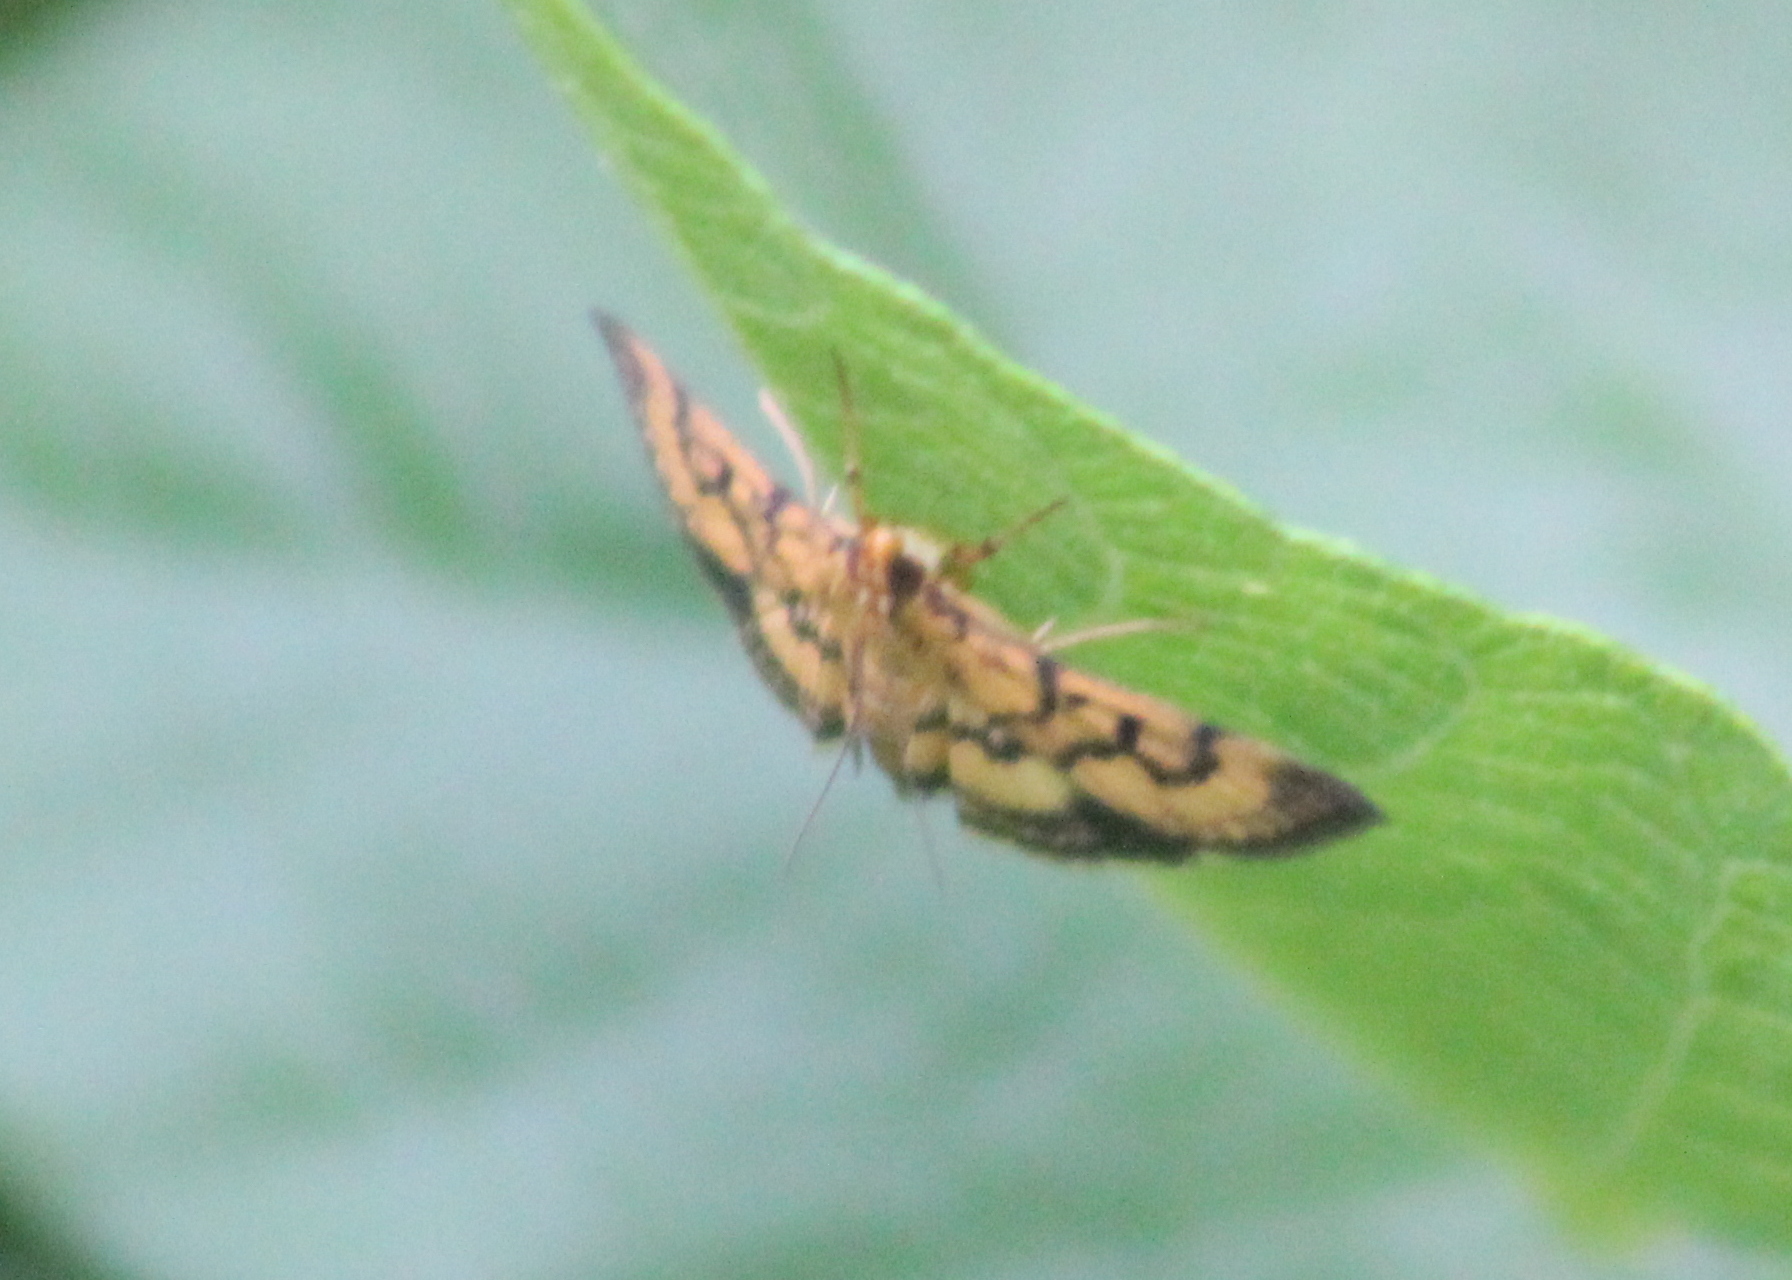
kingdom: Animalia
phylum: Arthropoda
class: Insecta
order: Lepidoptera
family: Crambidae
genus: Omiodes
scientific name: Omiodes diemenalis
